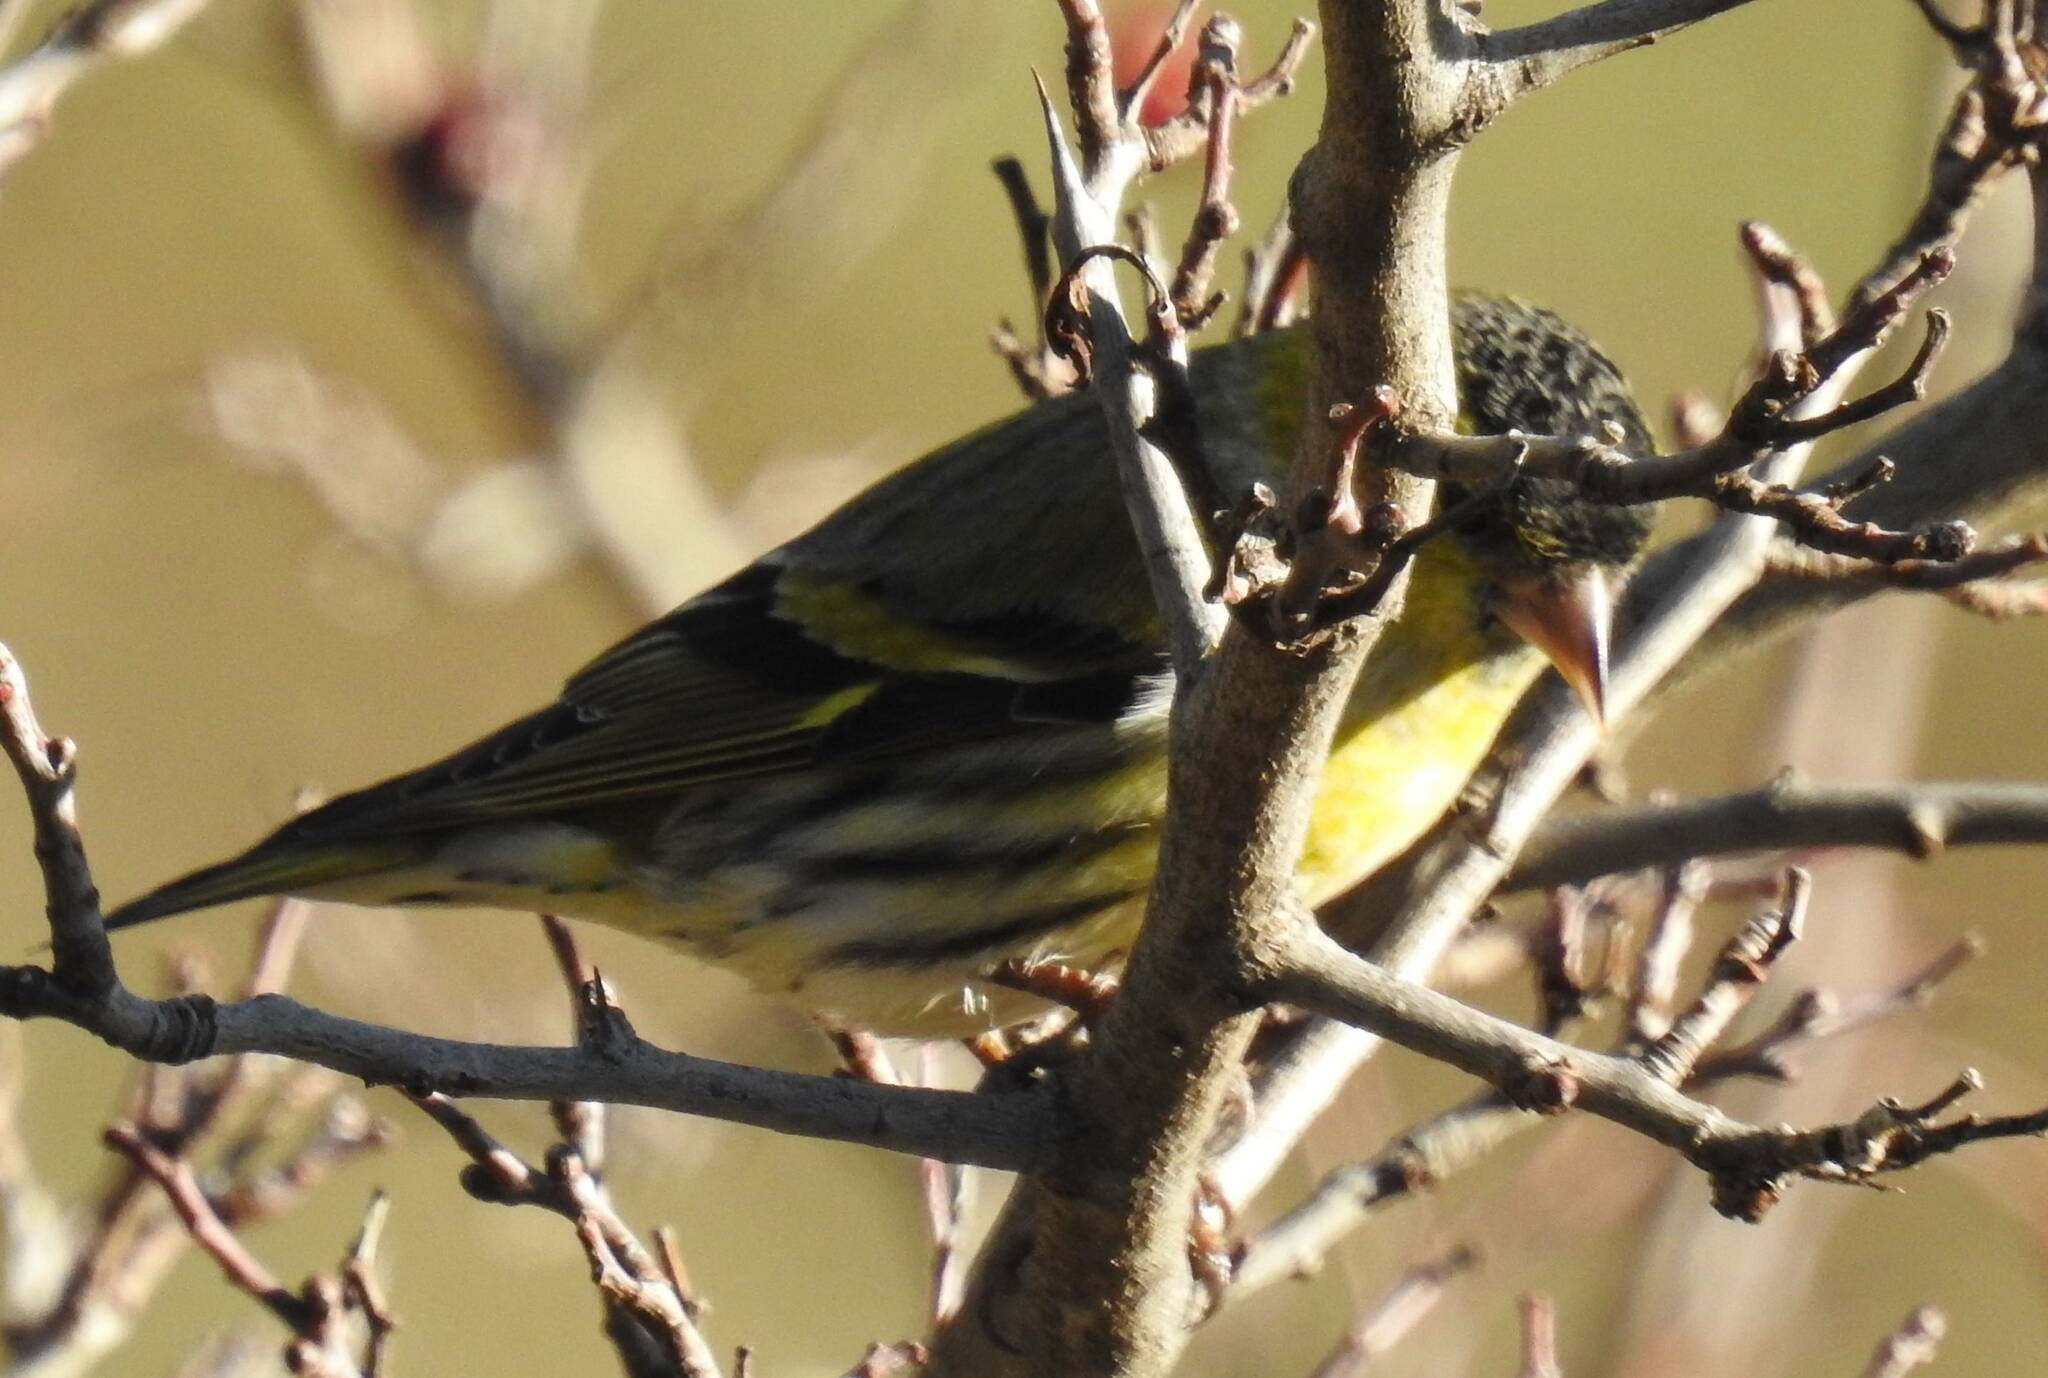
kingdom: Animalia
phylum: Chordata
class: Aves
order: Passeriformes
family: Fringillidae
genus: Spinus
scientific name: Spinus spinus
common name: Eurasian siskin
